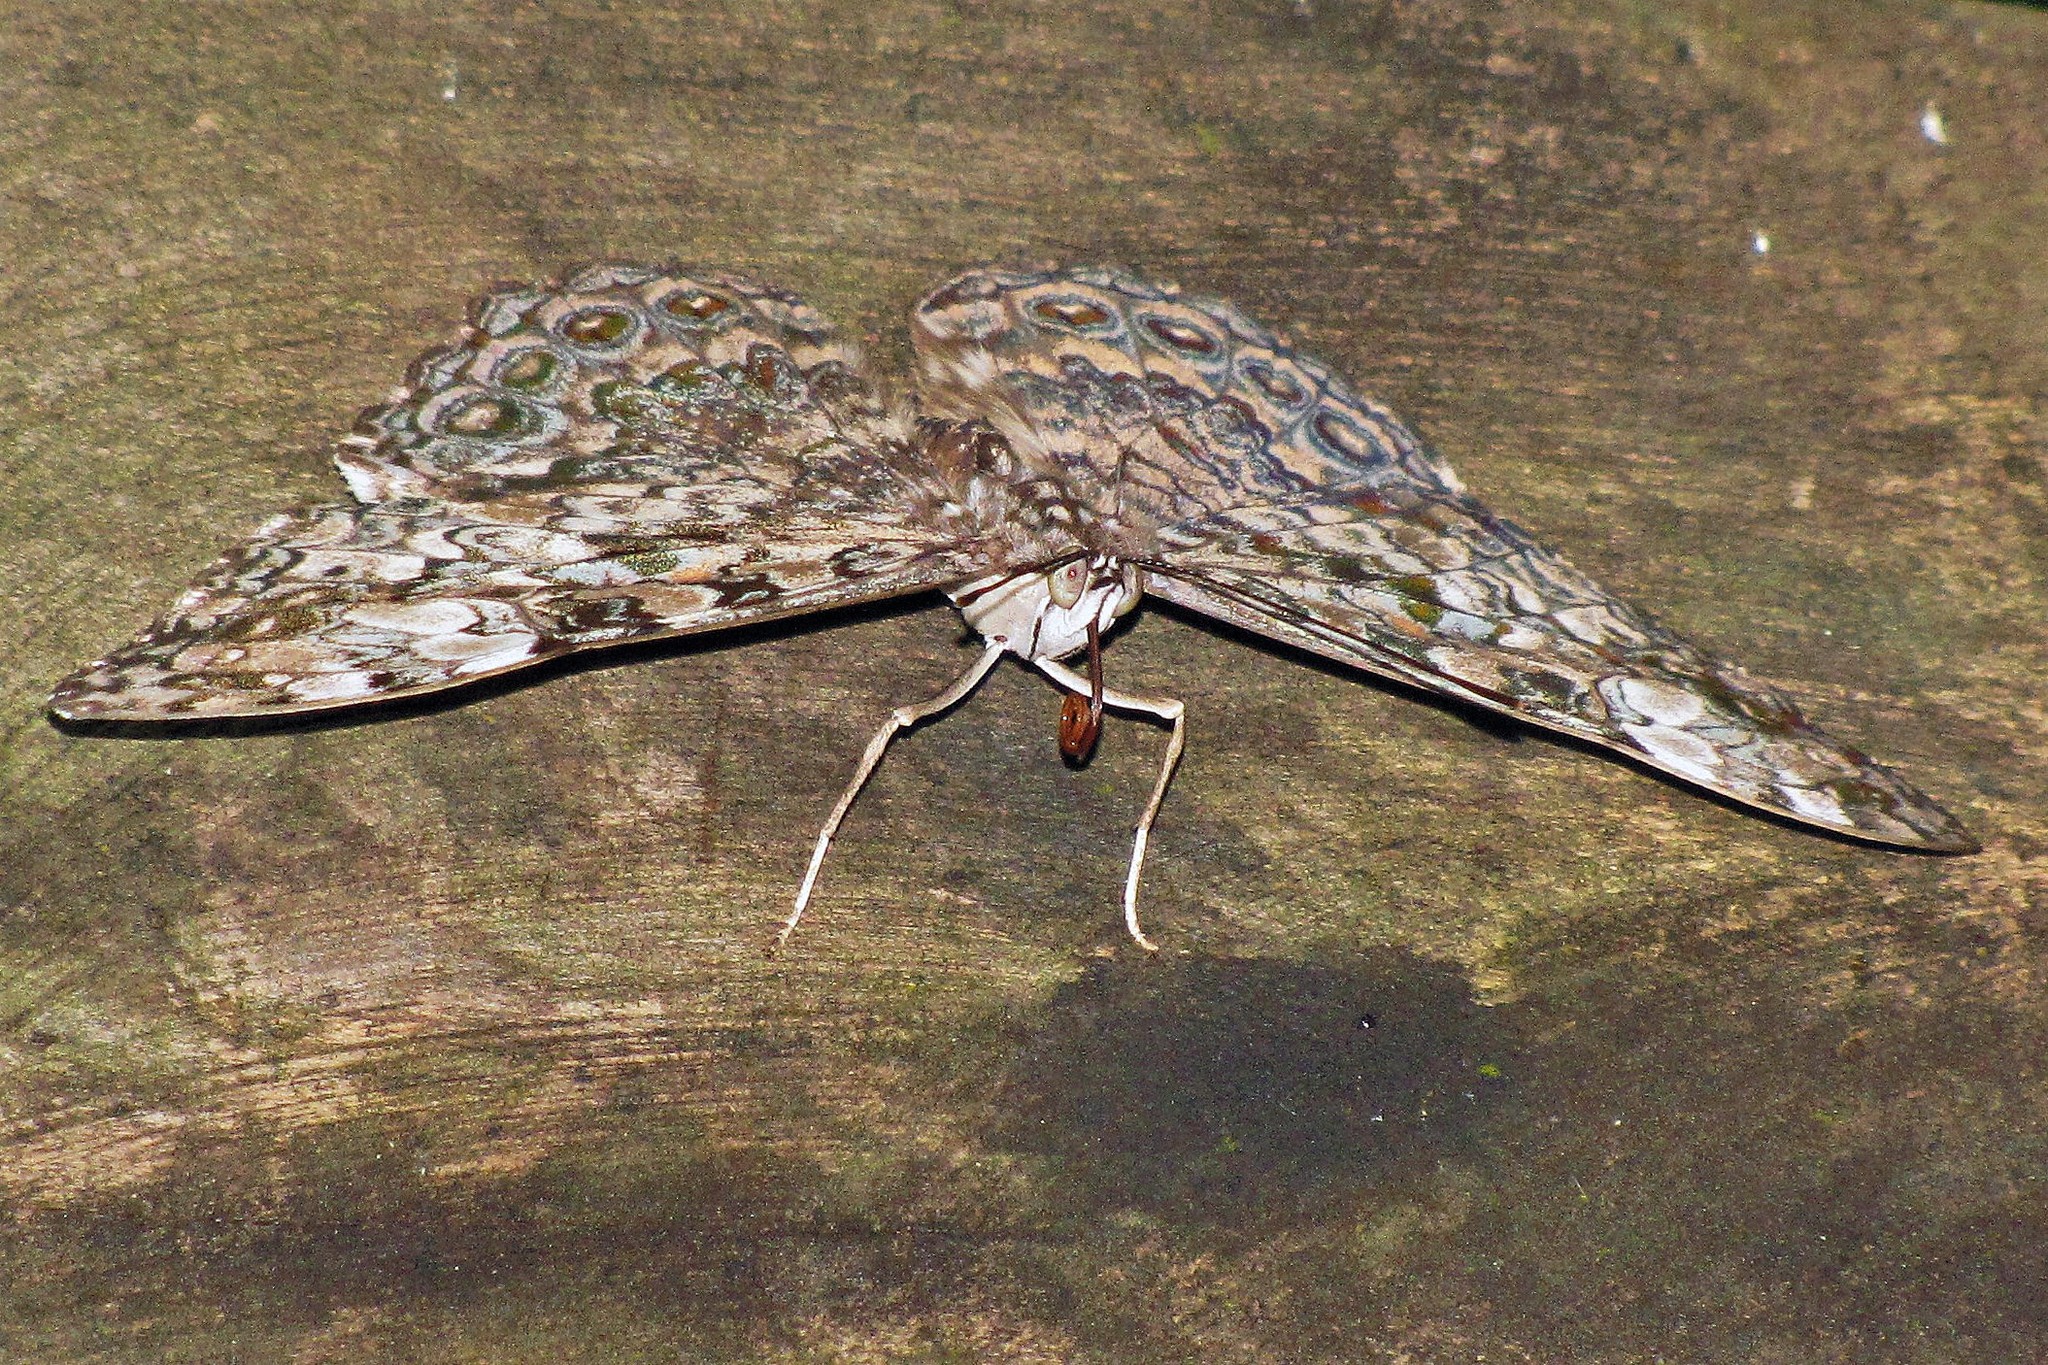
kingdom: Animalia
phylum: Arthropoda
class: Insecta
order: Lepidoptera
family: Nymphalidae
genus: Hamadryas
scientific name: Hamadryas epinome
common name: Epinome cracker
